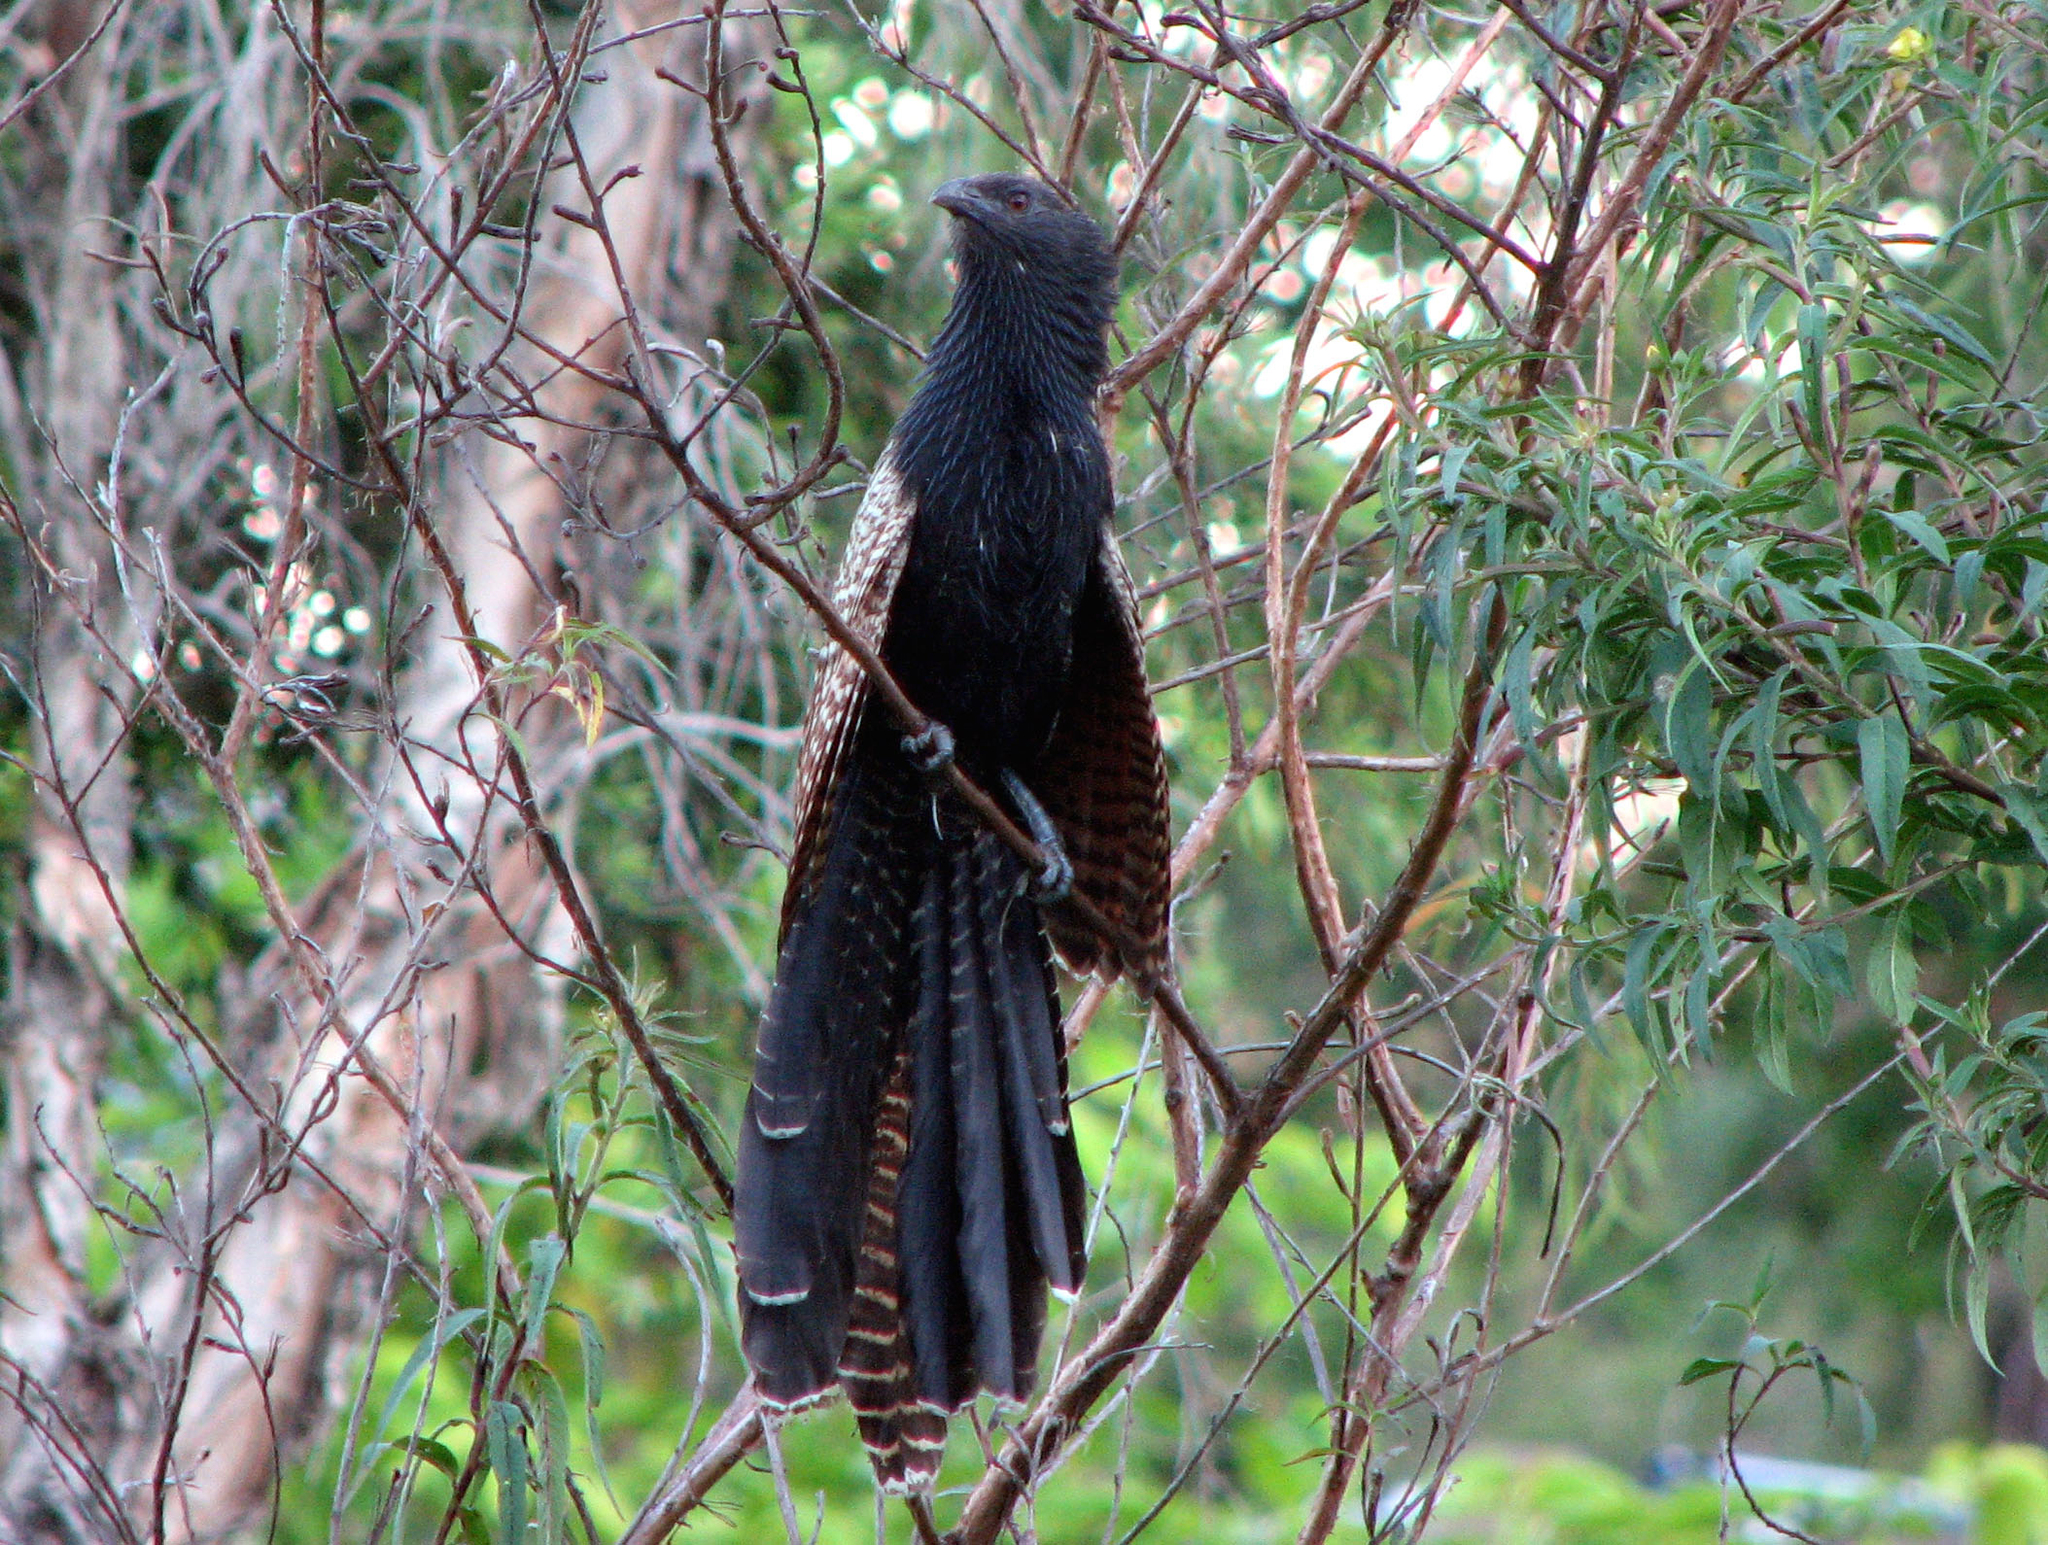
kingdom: Animalia
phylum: Chordata
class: Aves
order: Cuculiformes
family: Cuculidae
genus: Centropus
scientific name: Centropus phasianinus
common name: Pheasant coucal
